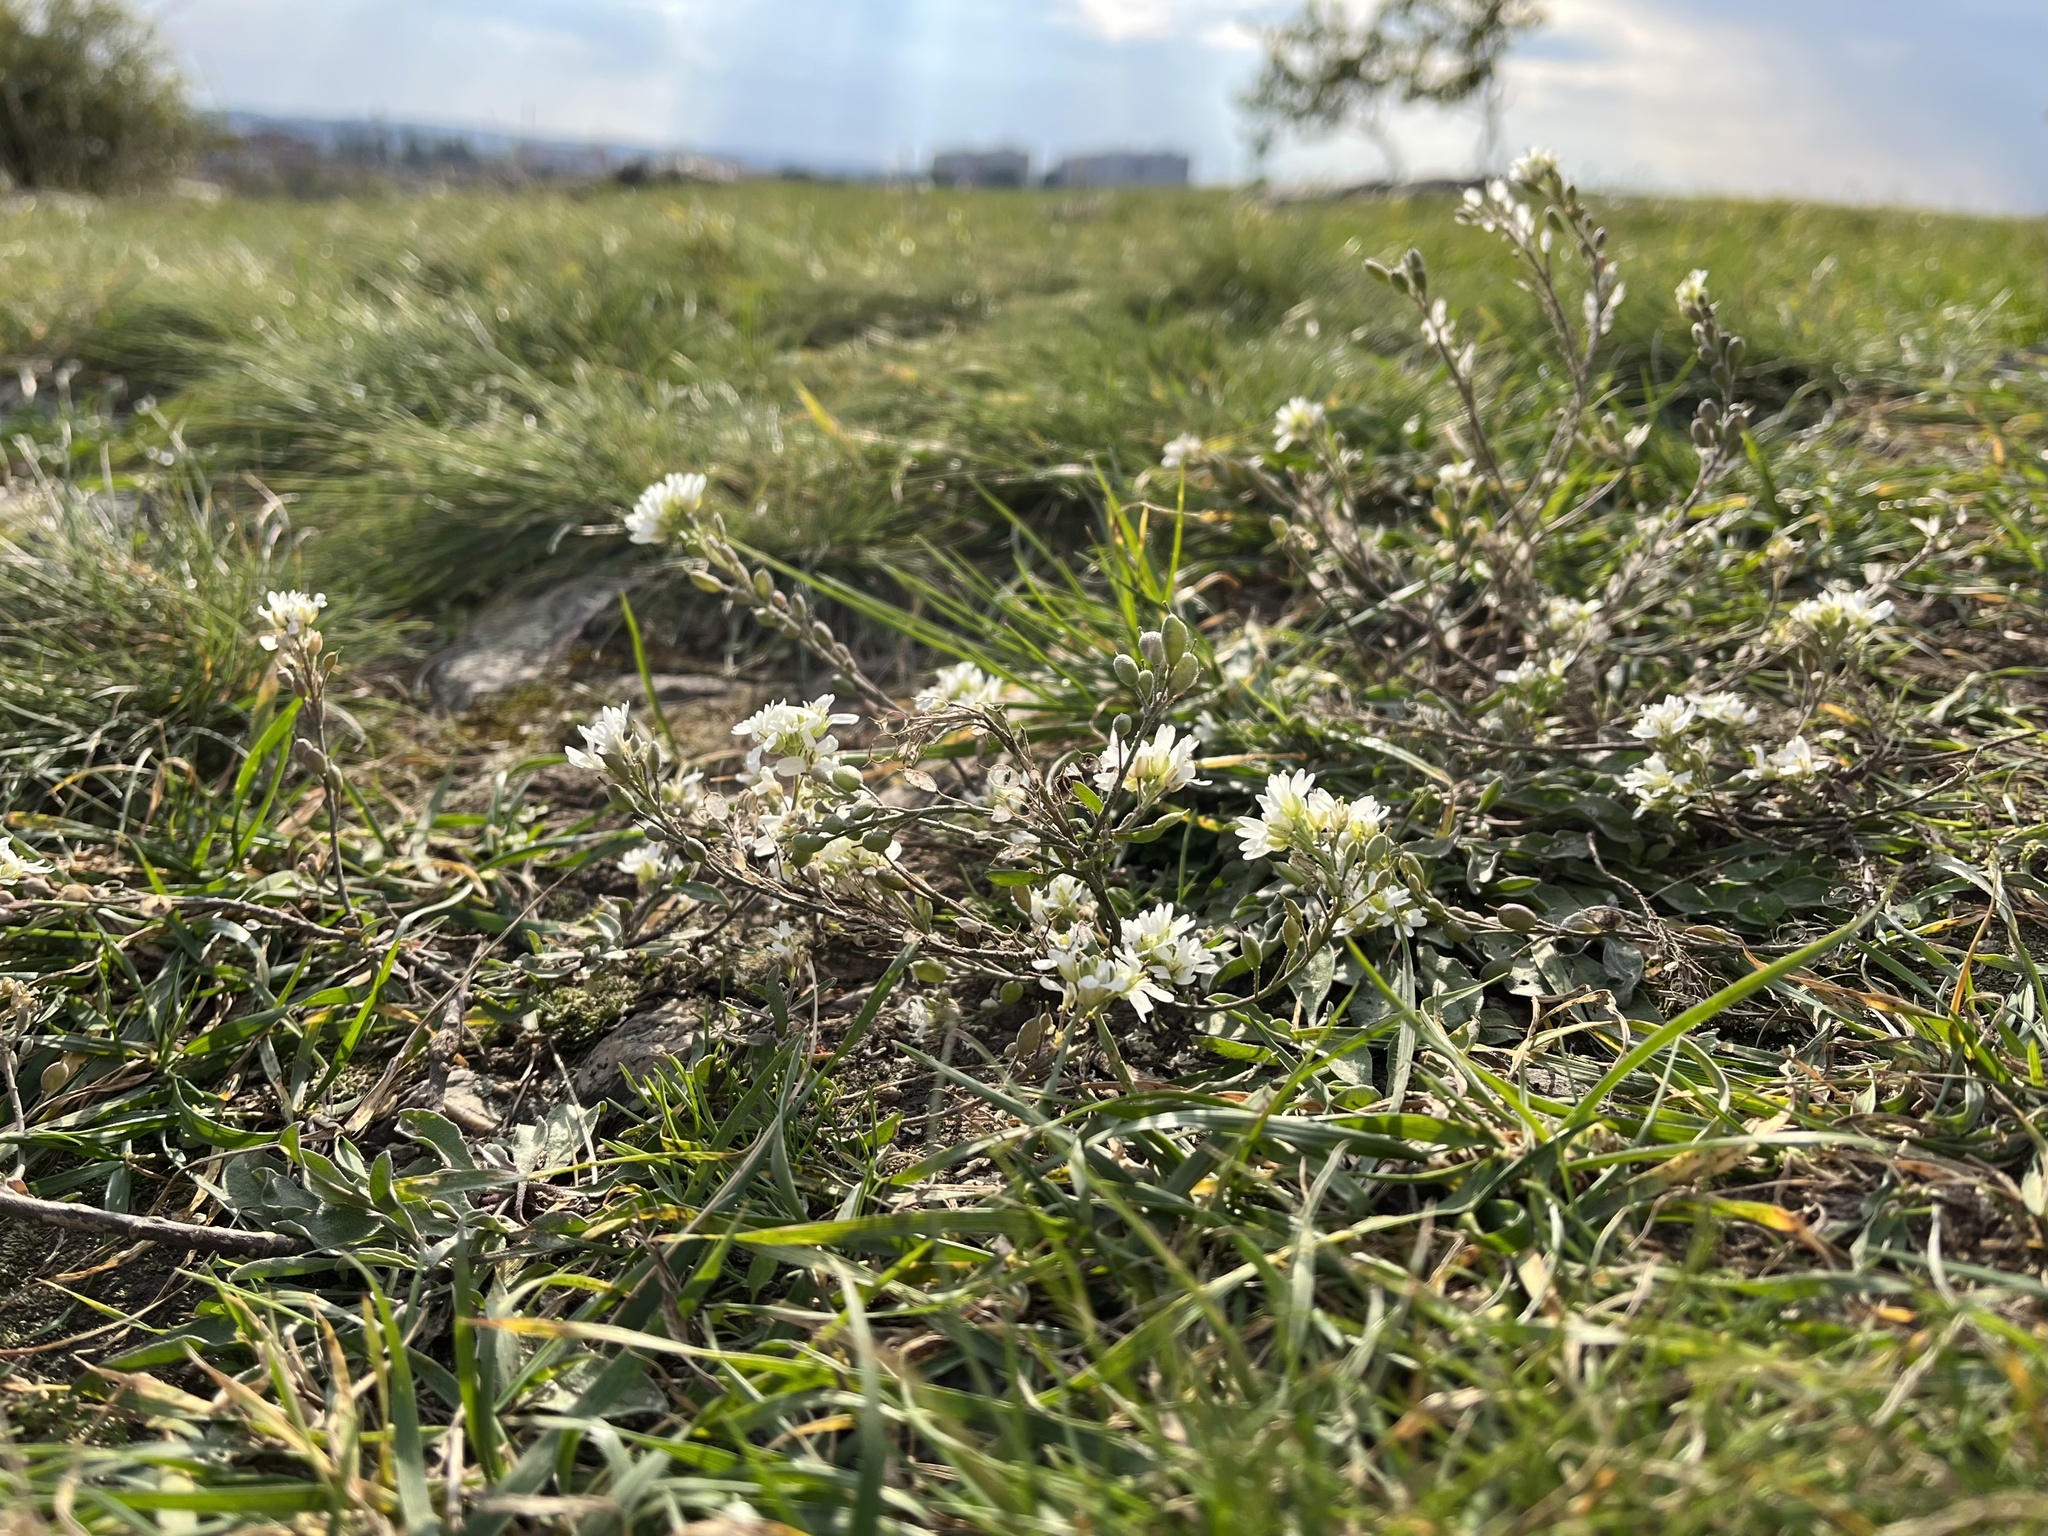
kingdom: Plantae
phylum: Tracheophyta
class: Magnoliopsida
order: Brassicales
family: Brassicaceae
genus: Berteroa
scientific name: Berteroa incana
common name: Hoary alison
